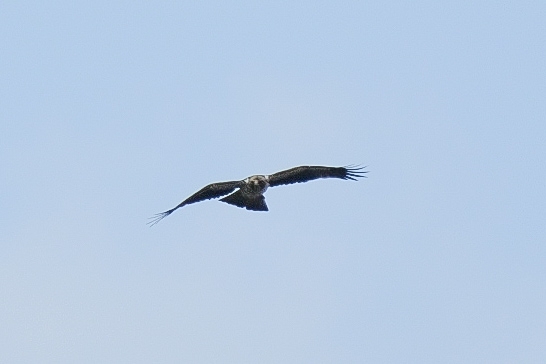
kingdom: Animalia
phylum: Chordata
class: Aves
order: Accipitriformes
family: Accipitridae
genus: Hieraaetus
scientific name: Hieraaetus pennatus
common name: Booted eagle
